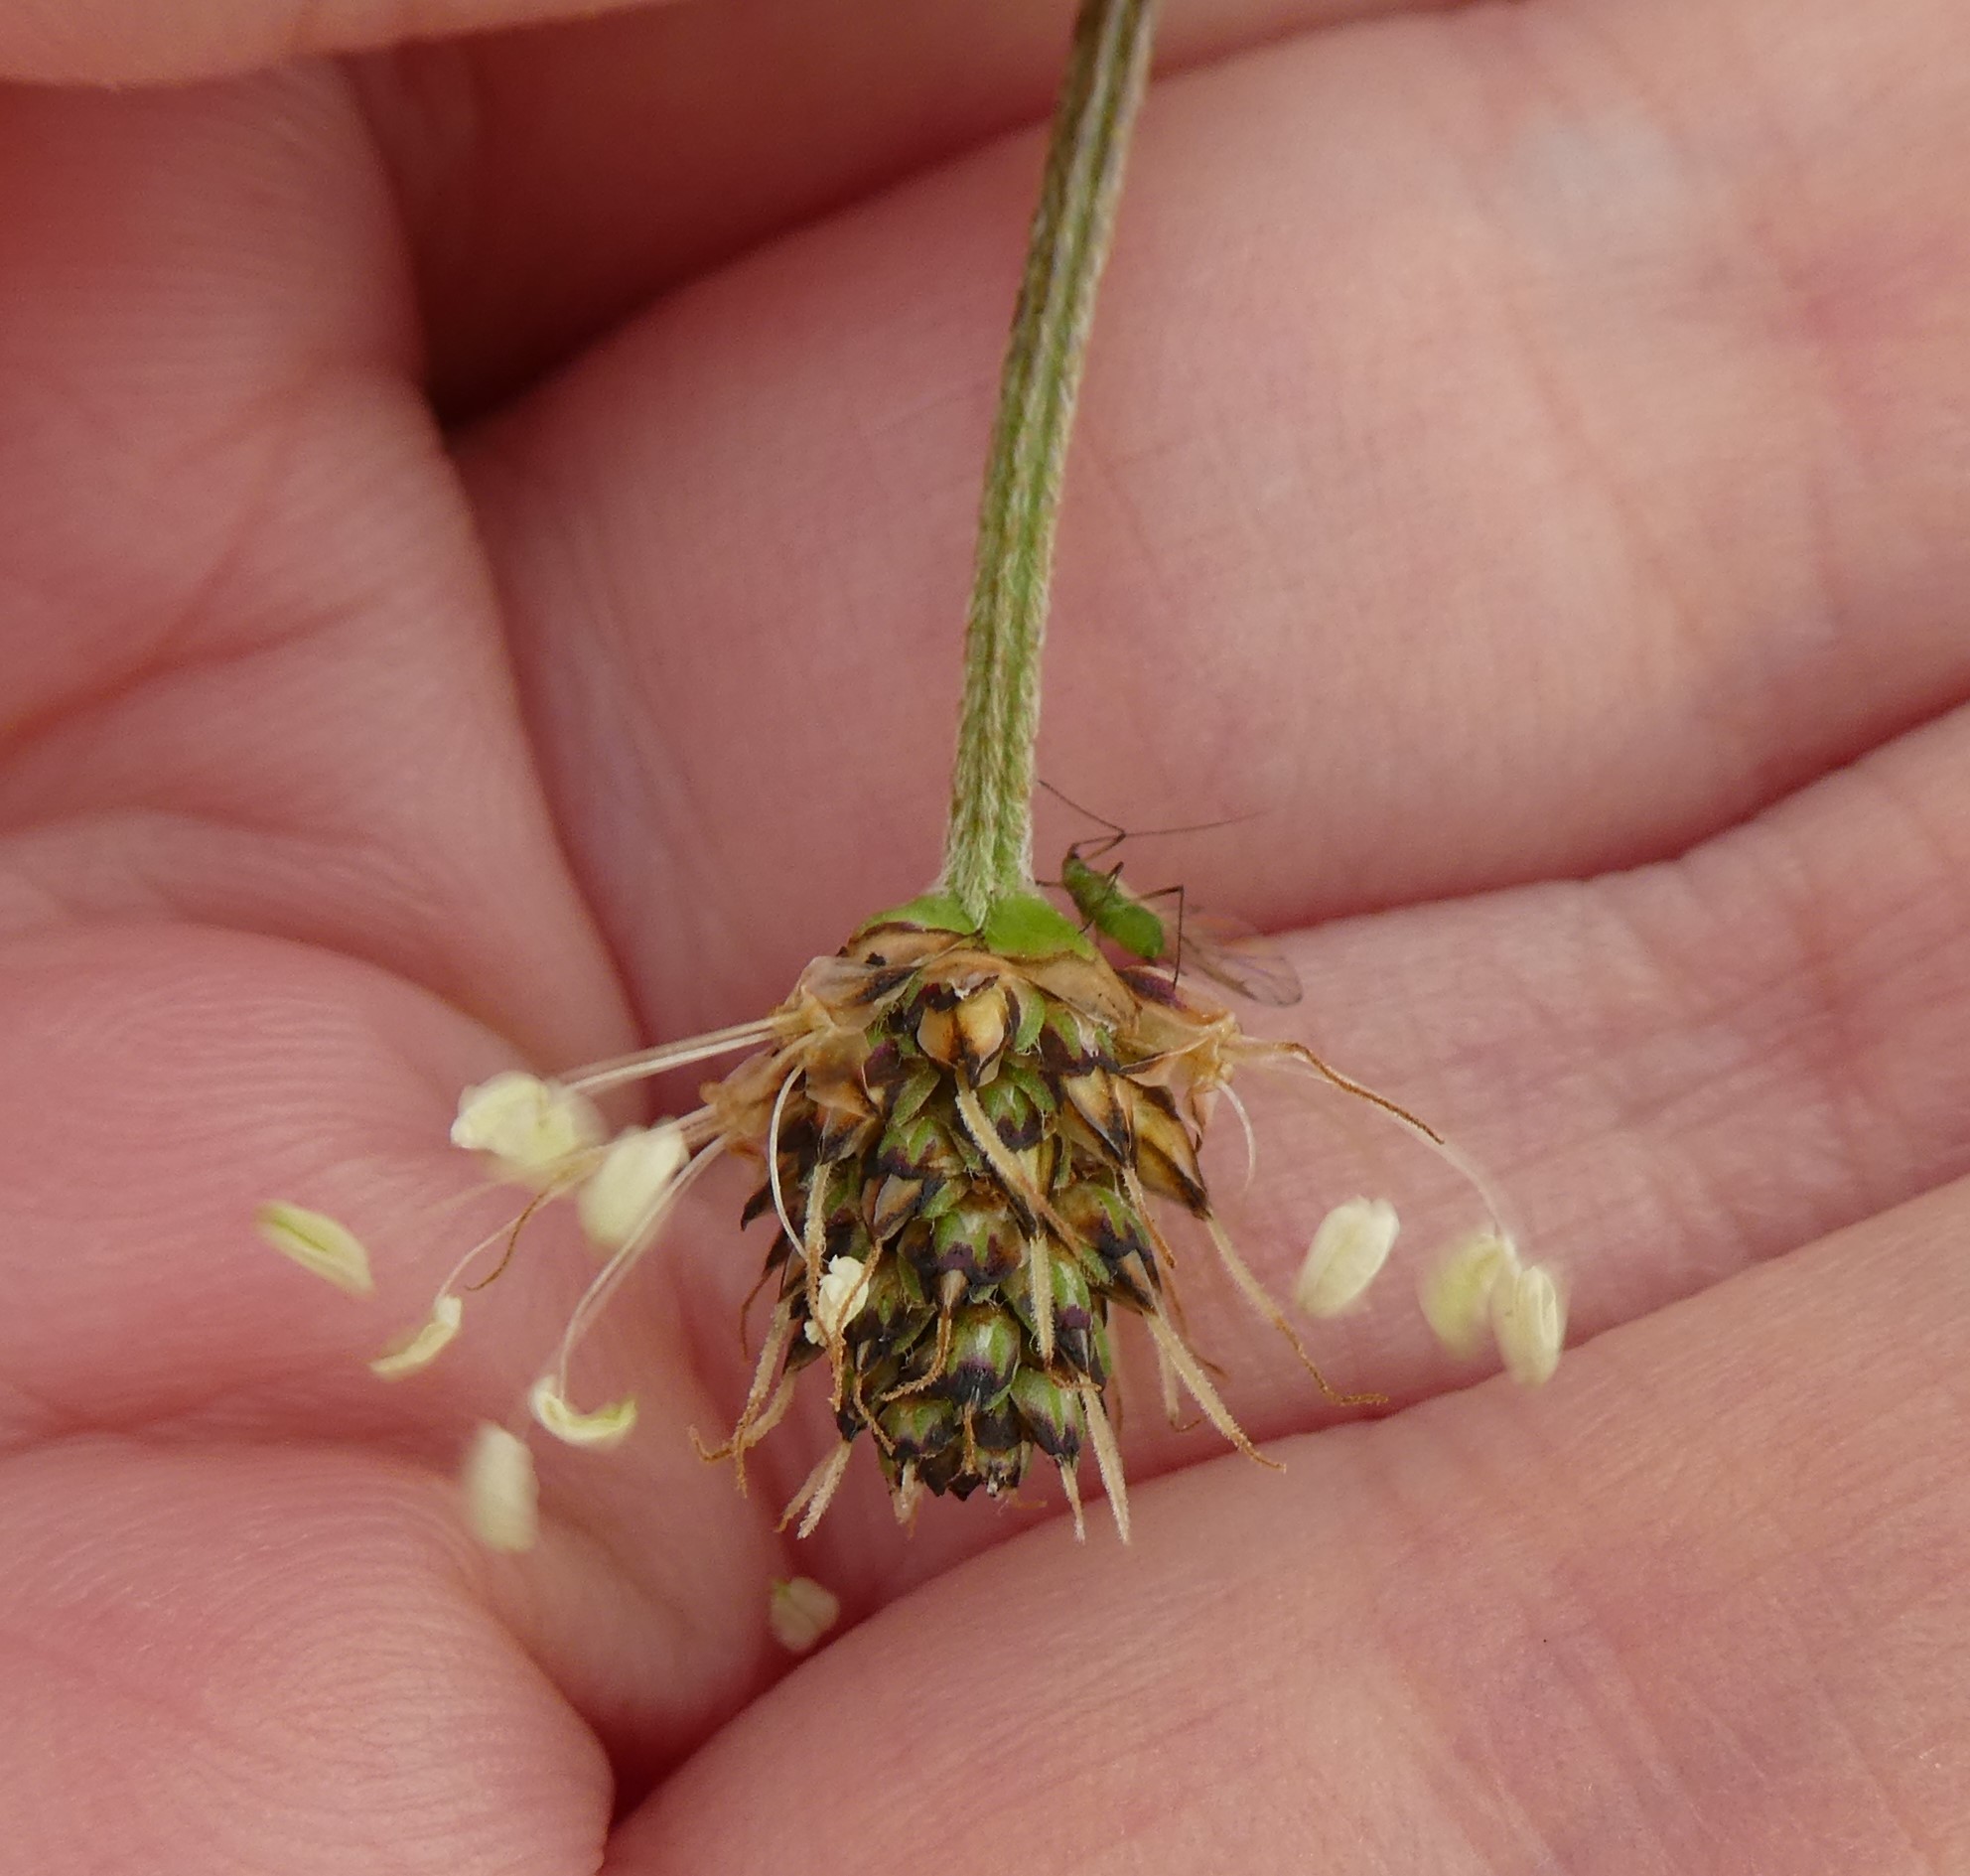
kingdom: Plantae
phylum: Tracheophyta
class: Magnoliopsida
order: Lamiales
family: Plantaginaceae
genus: Plantago
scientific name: Plantago lanceolata
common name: Ribwort plantain
